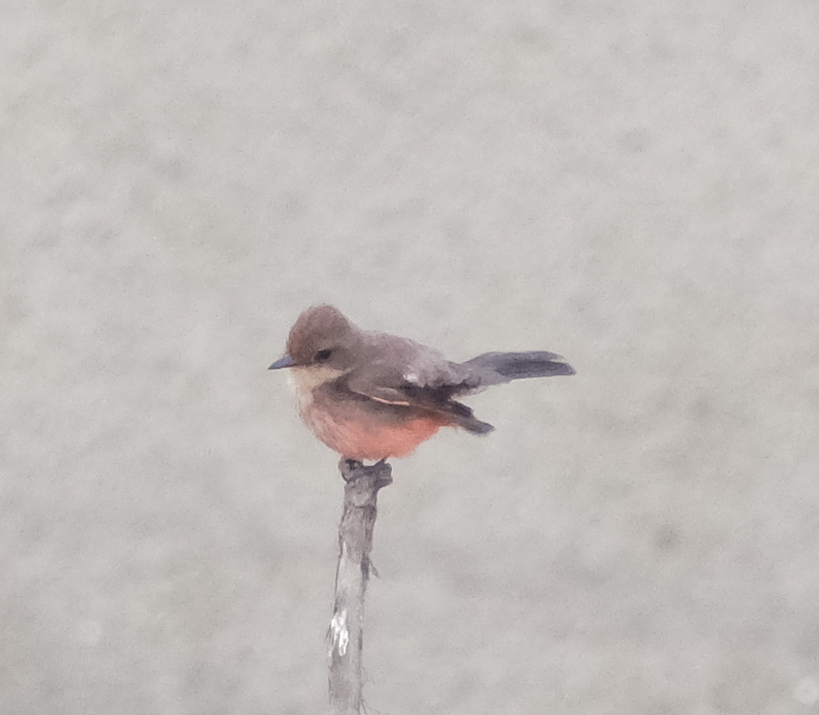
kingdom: Animalia
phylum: Chordata
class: Aves
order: Passeriformes
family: Tyrannidae
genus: Pyrocephalus
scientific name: Pyrocephalus rubinus
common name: Vermilion flycatcher
